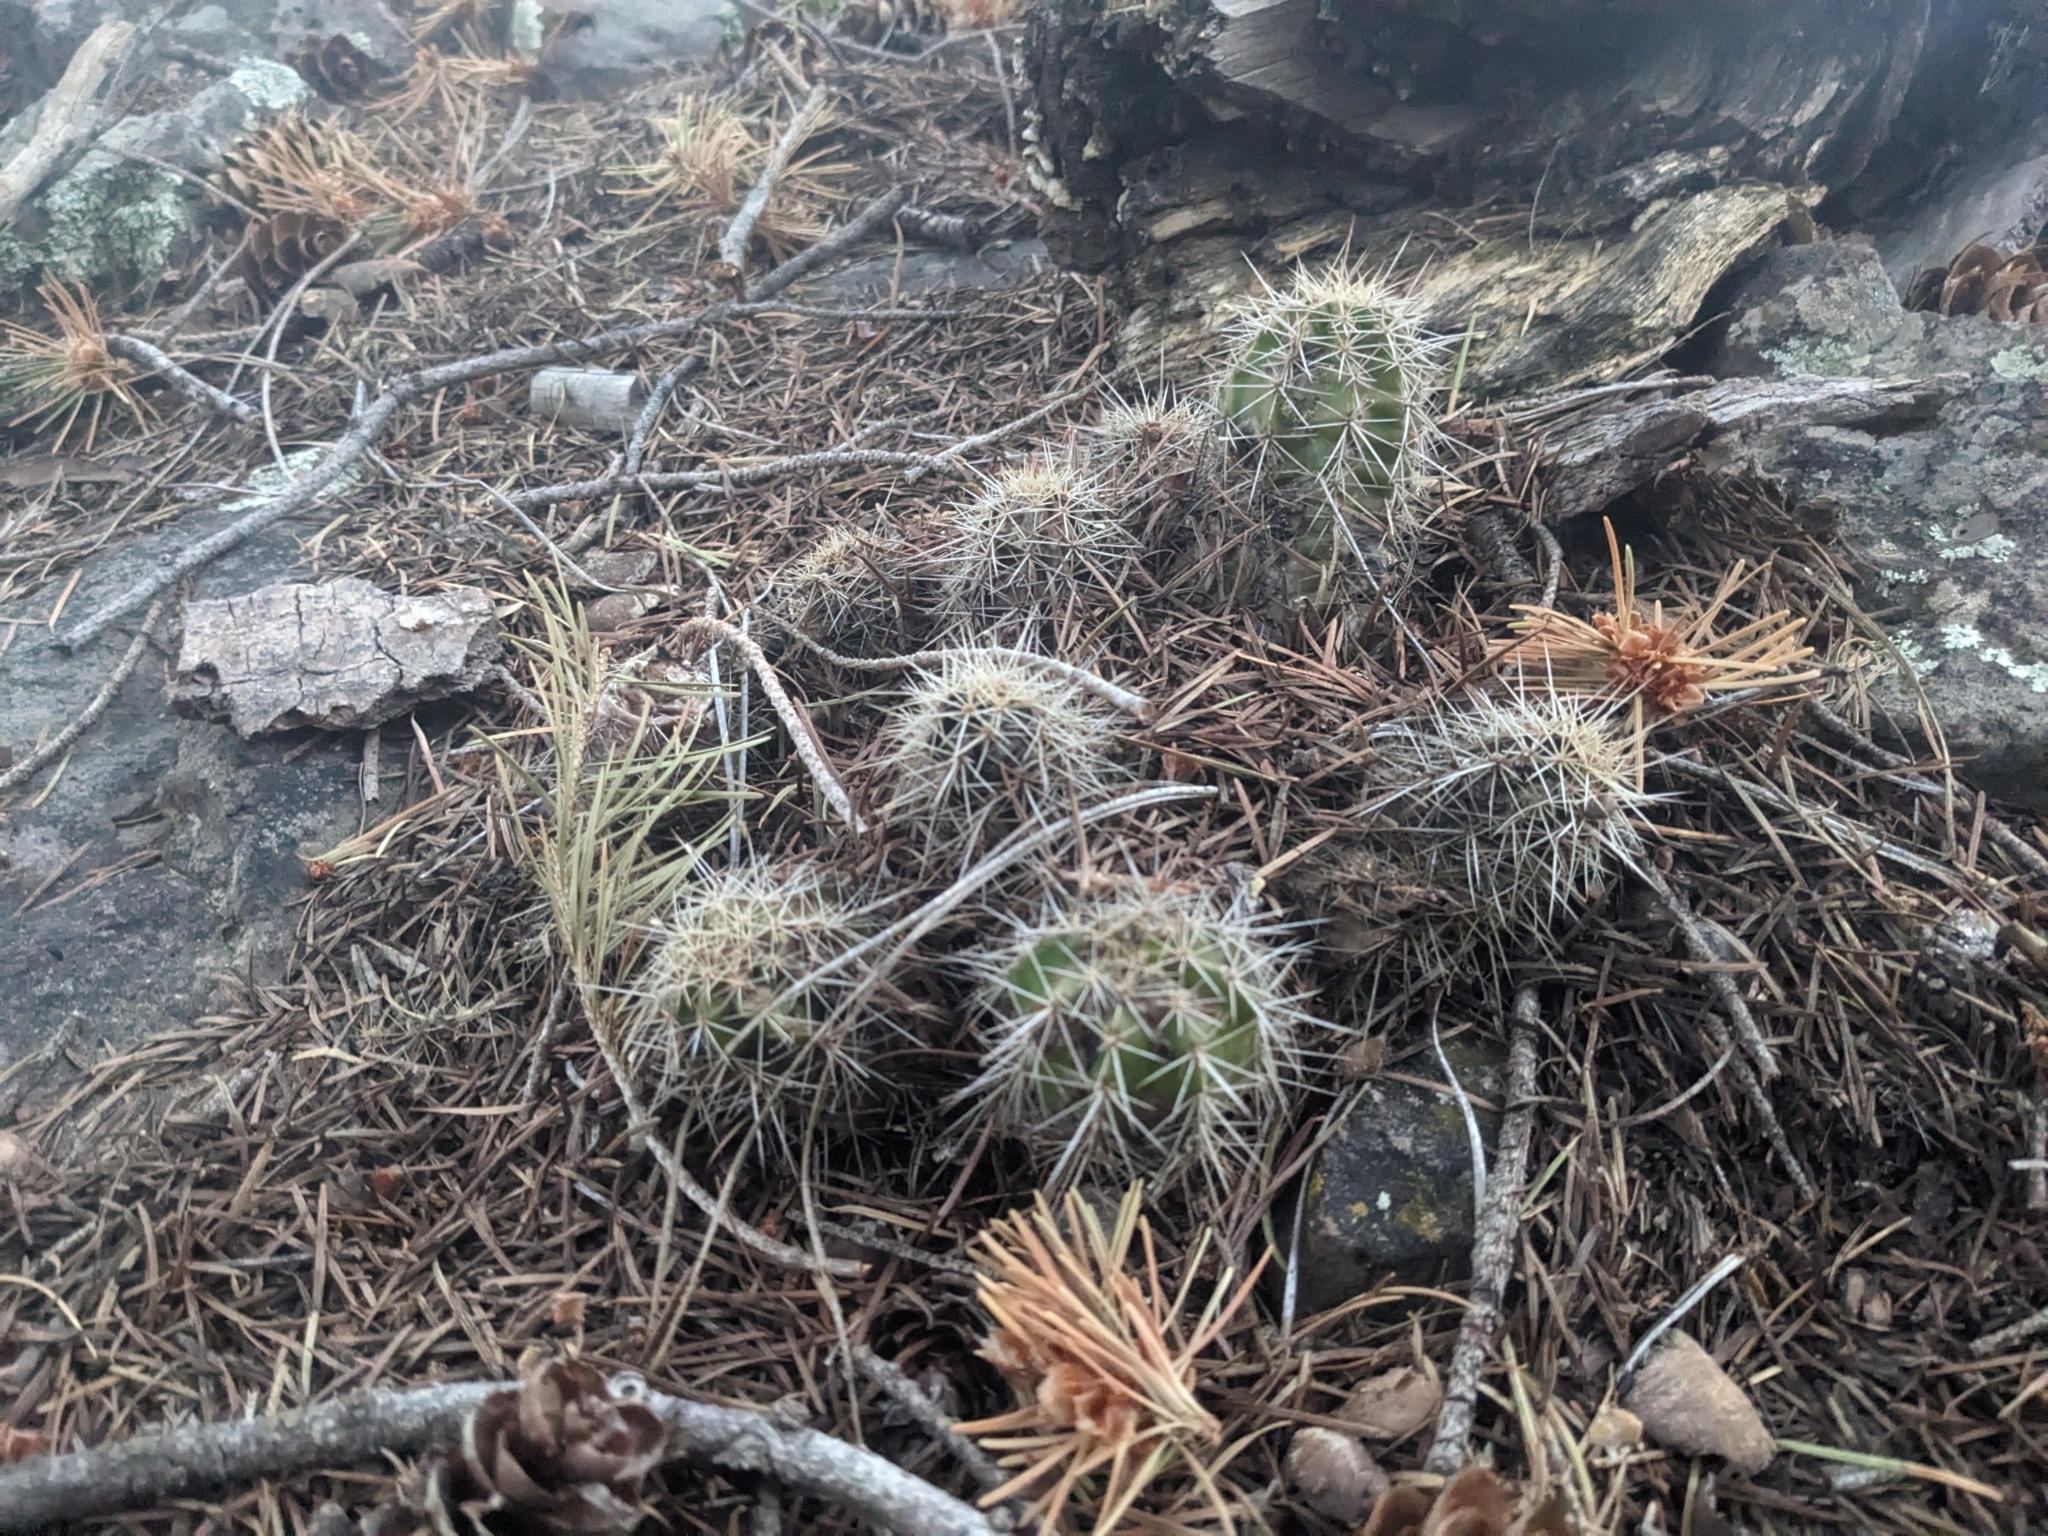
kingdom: Plantae
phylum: Tracheophyta
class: Magnoliopsida
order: Caryophyllales
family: Cactaceae
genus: Echinocereus
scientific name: Echinocereus bakeri
